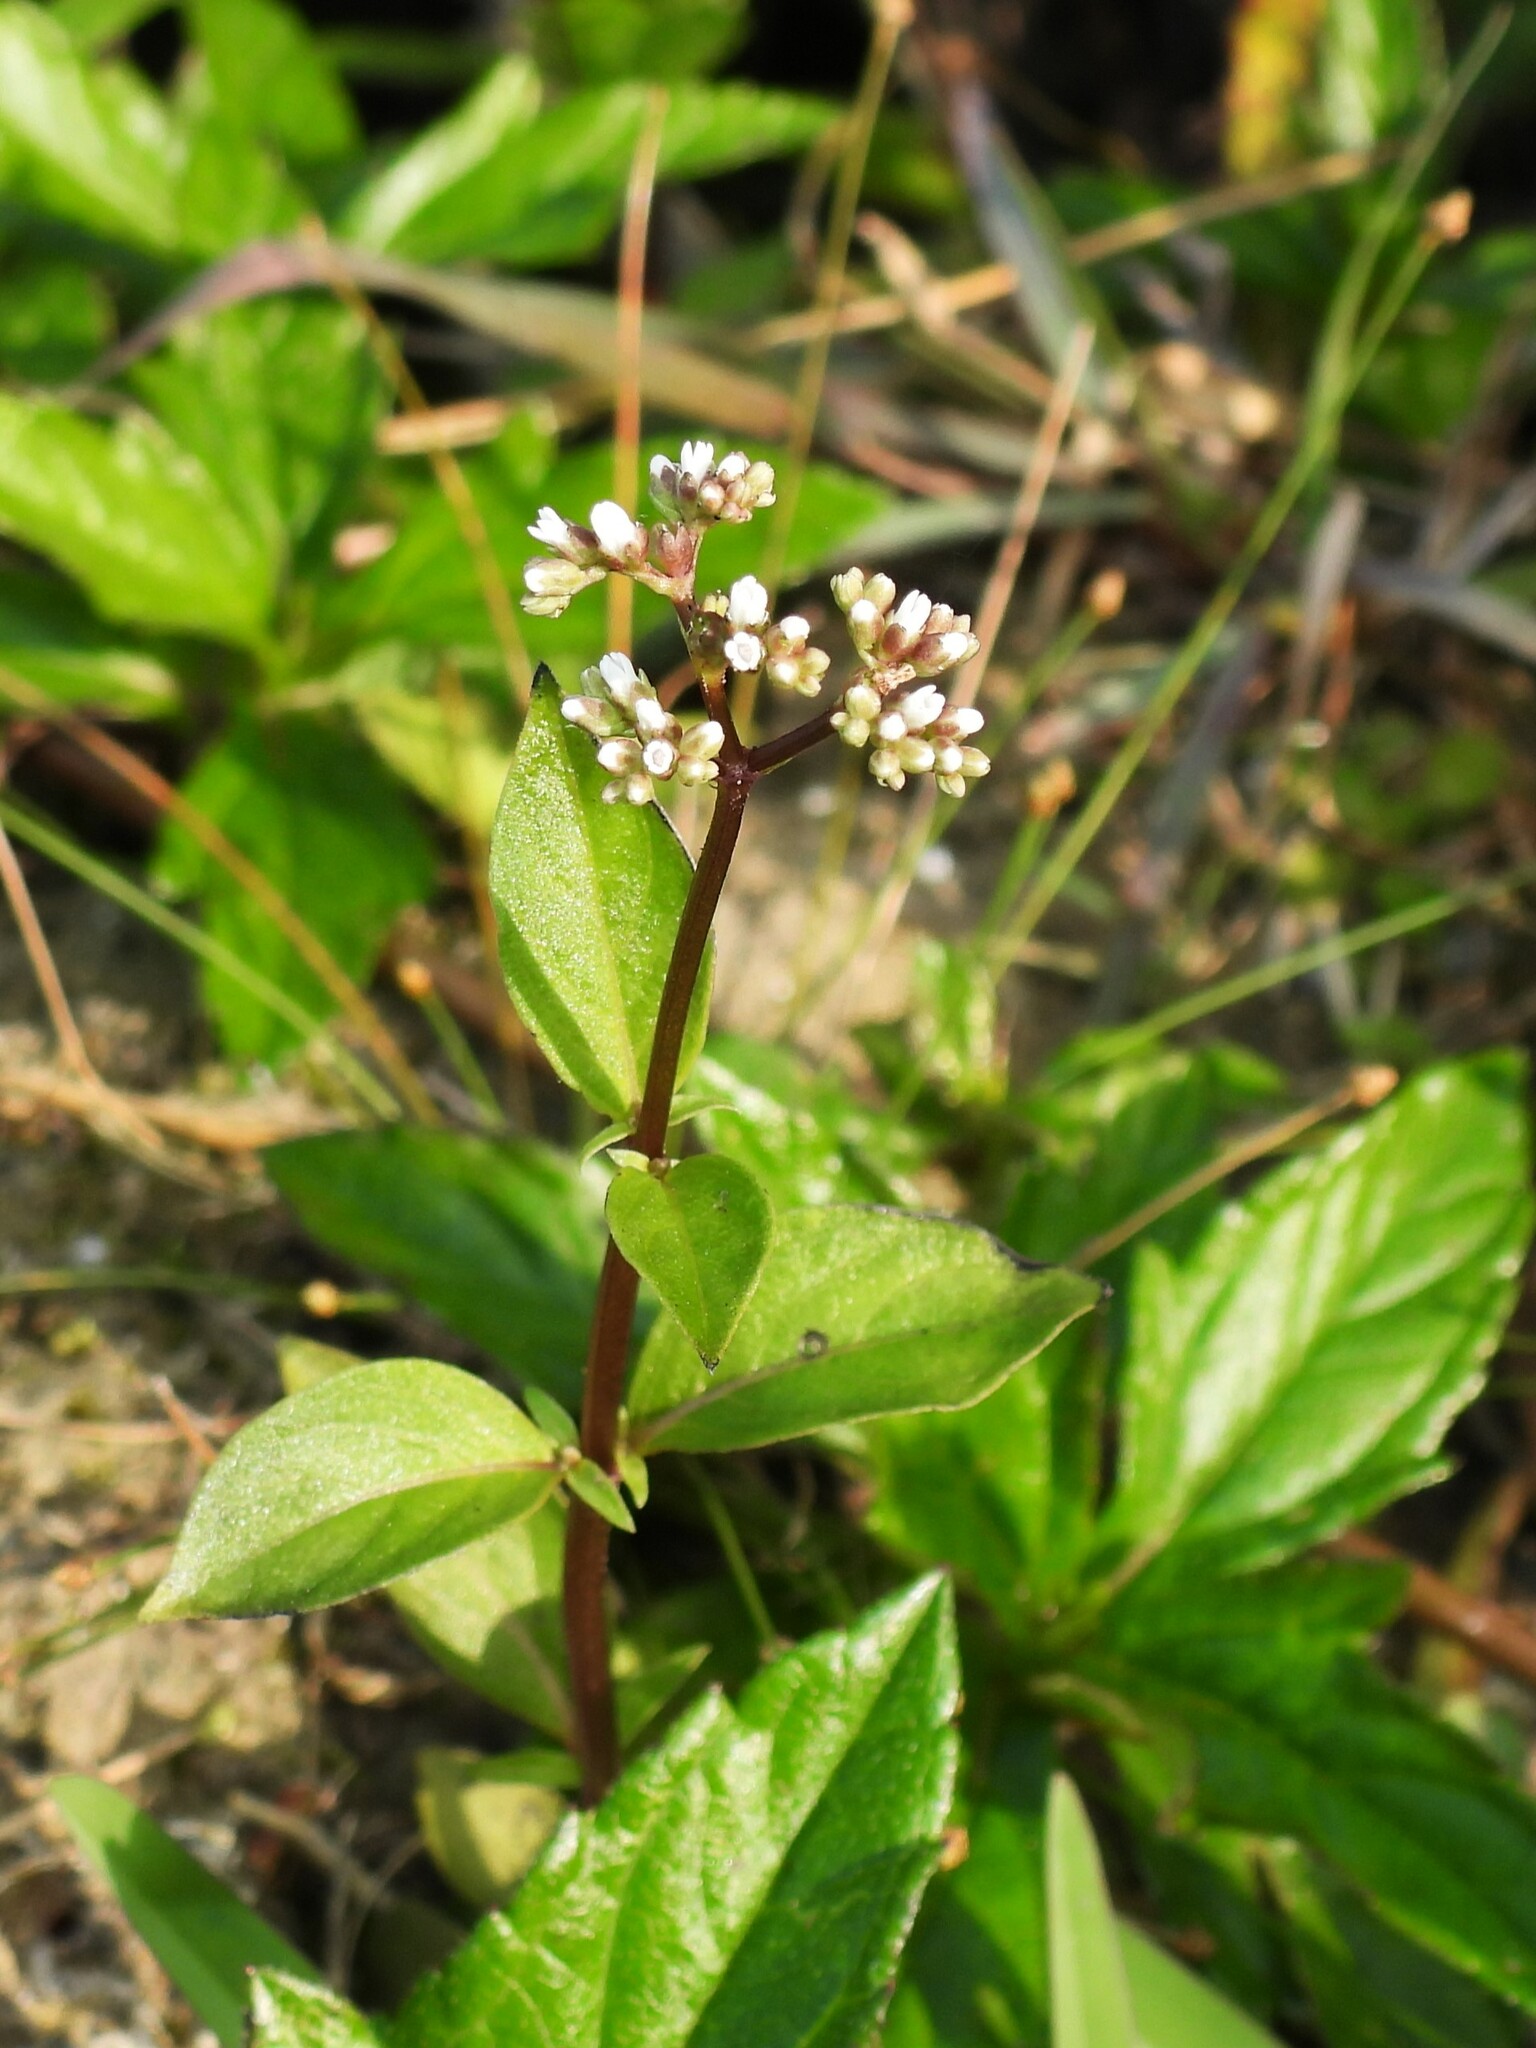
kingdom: Plantae
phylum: Tracheophyta
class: Magnoliopsida
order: Gentianales
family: Loganiaceae
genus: Mitreola
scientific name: Mitreola petiolata
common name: Lax hornpod
